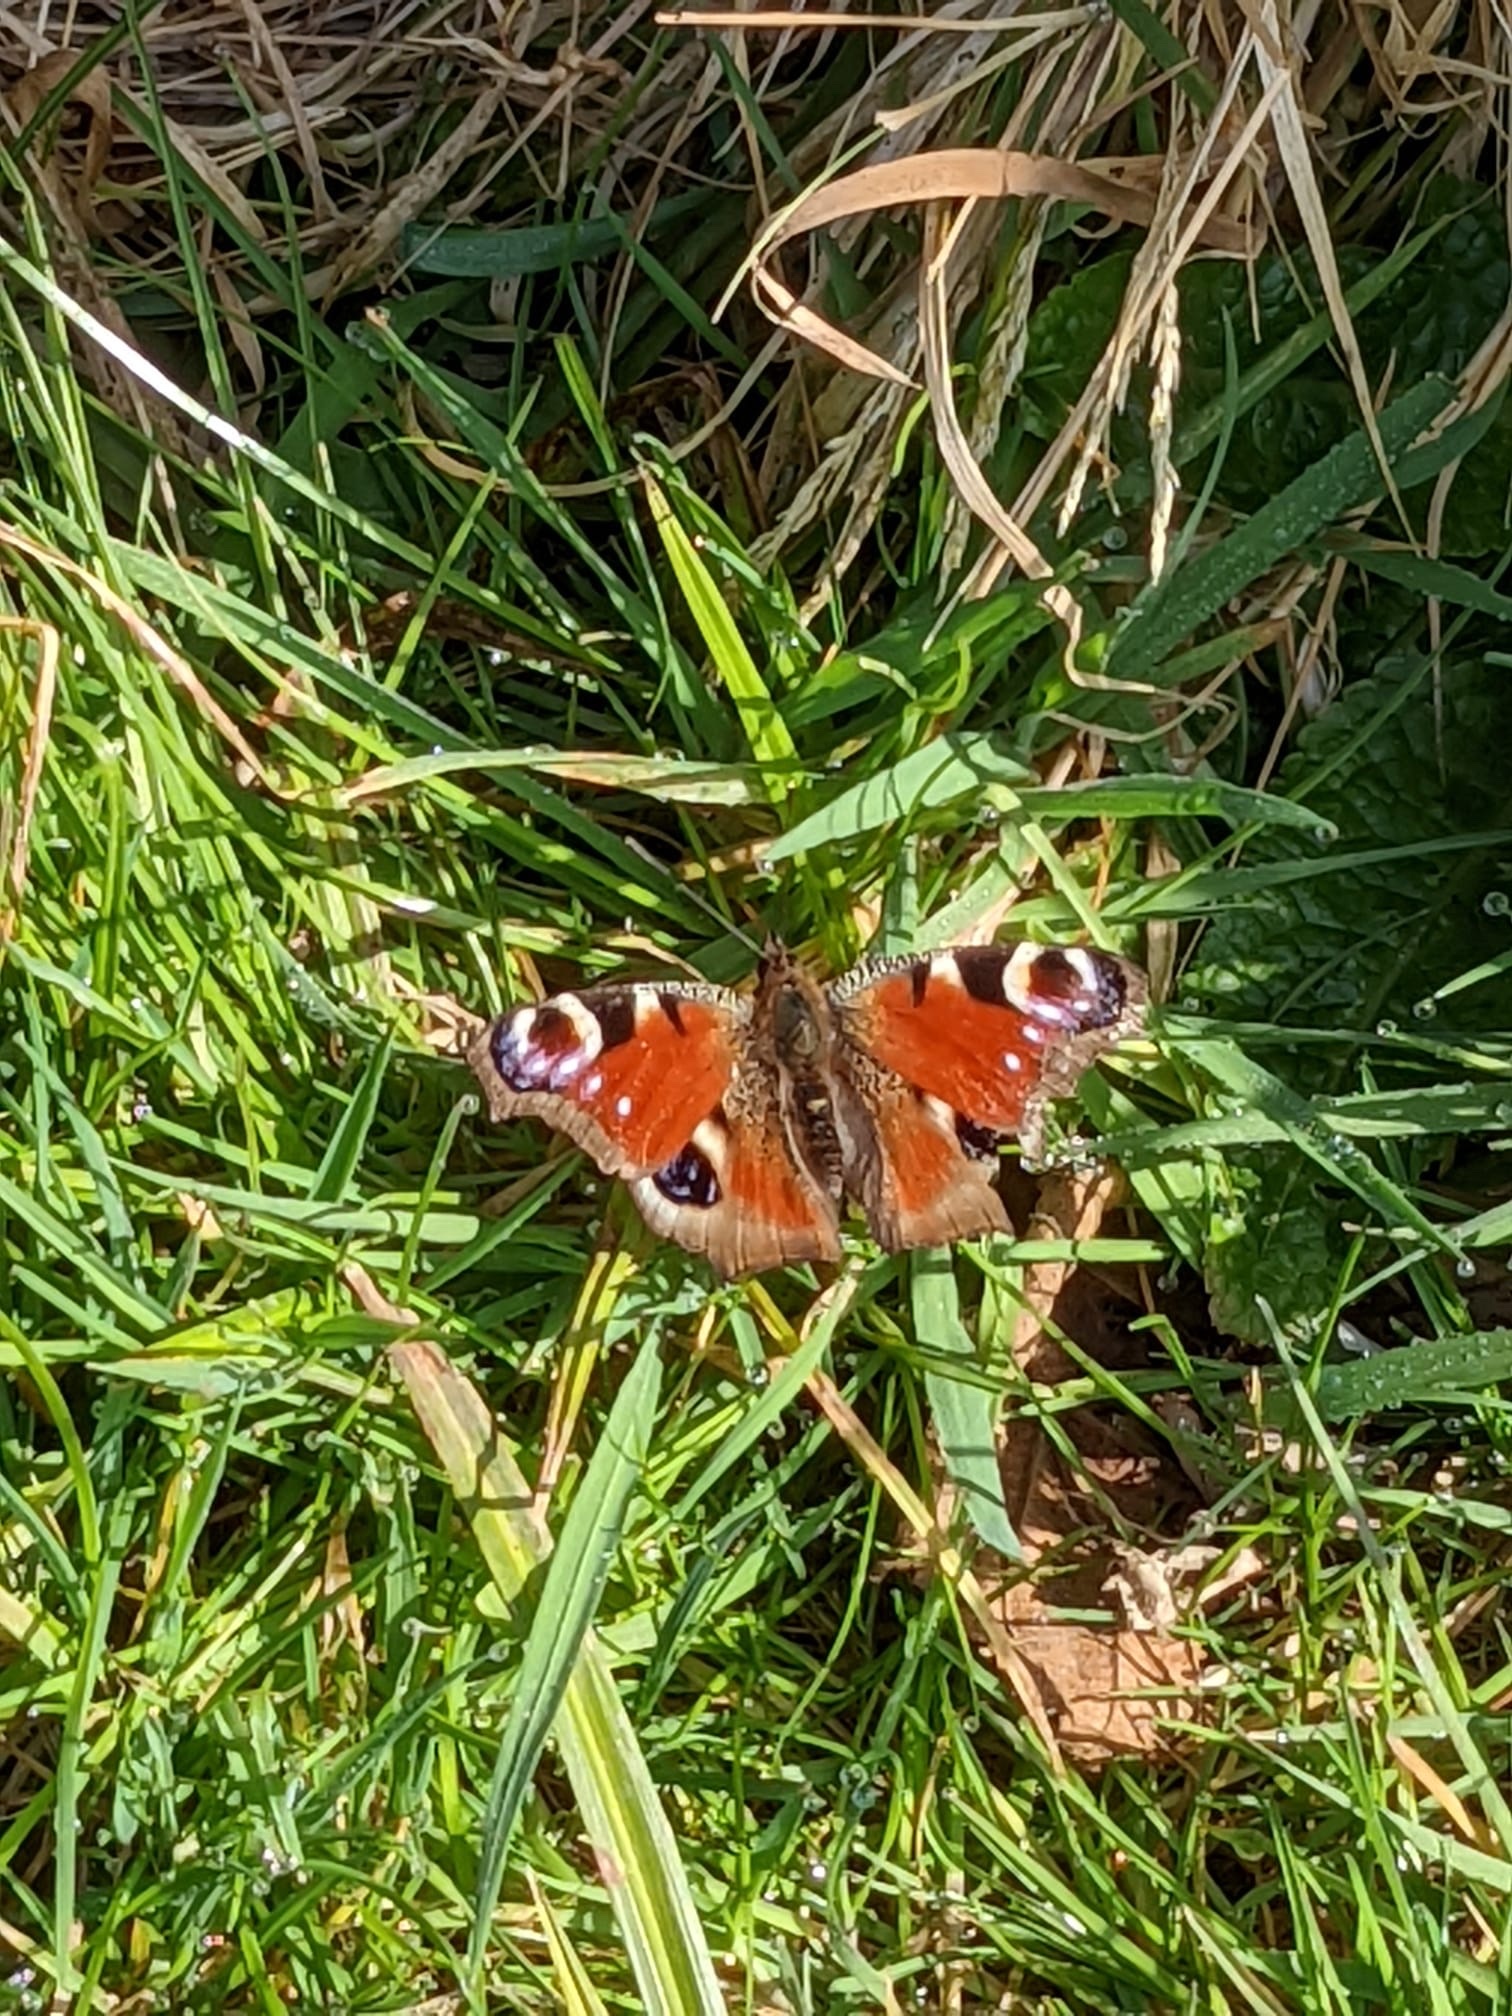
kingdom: Animalia
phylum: Arthropoda
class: Insecta
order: Lepidoptera
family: Nymphalidae
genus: Aglais
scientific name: Aglais io
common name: Peacock
